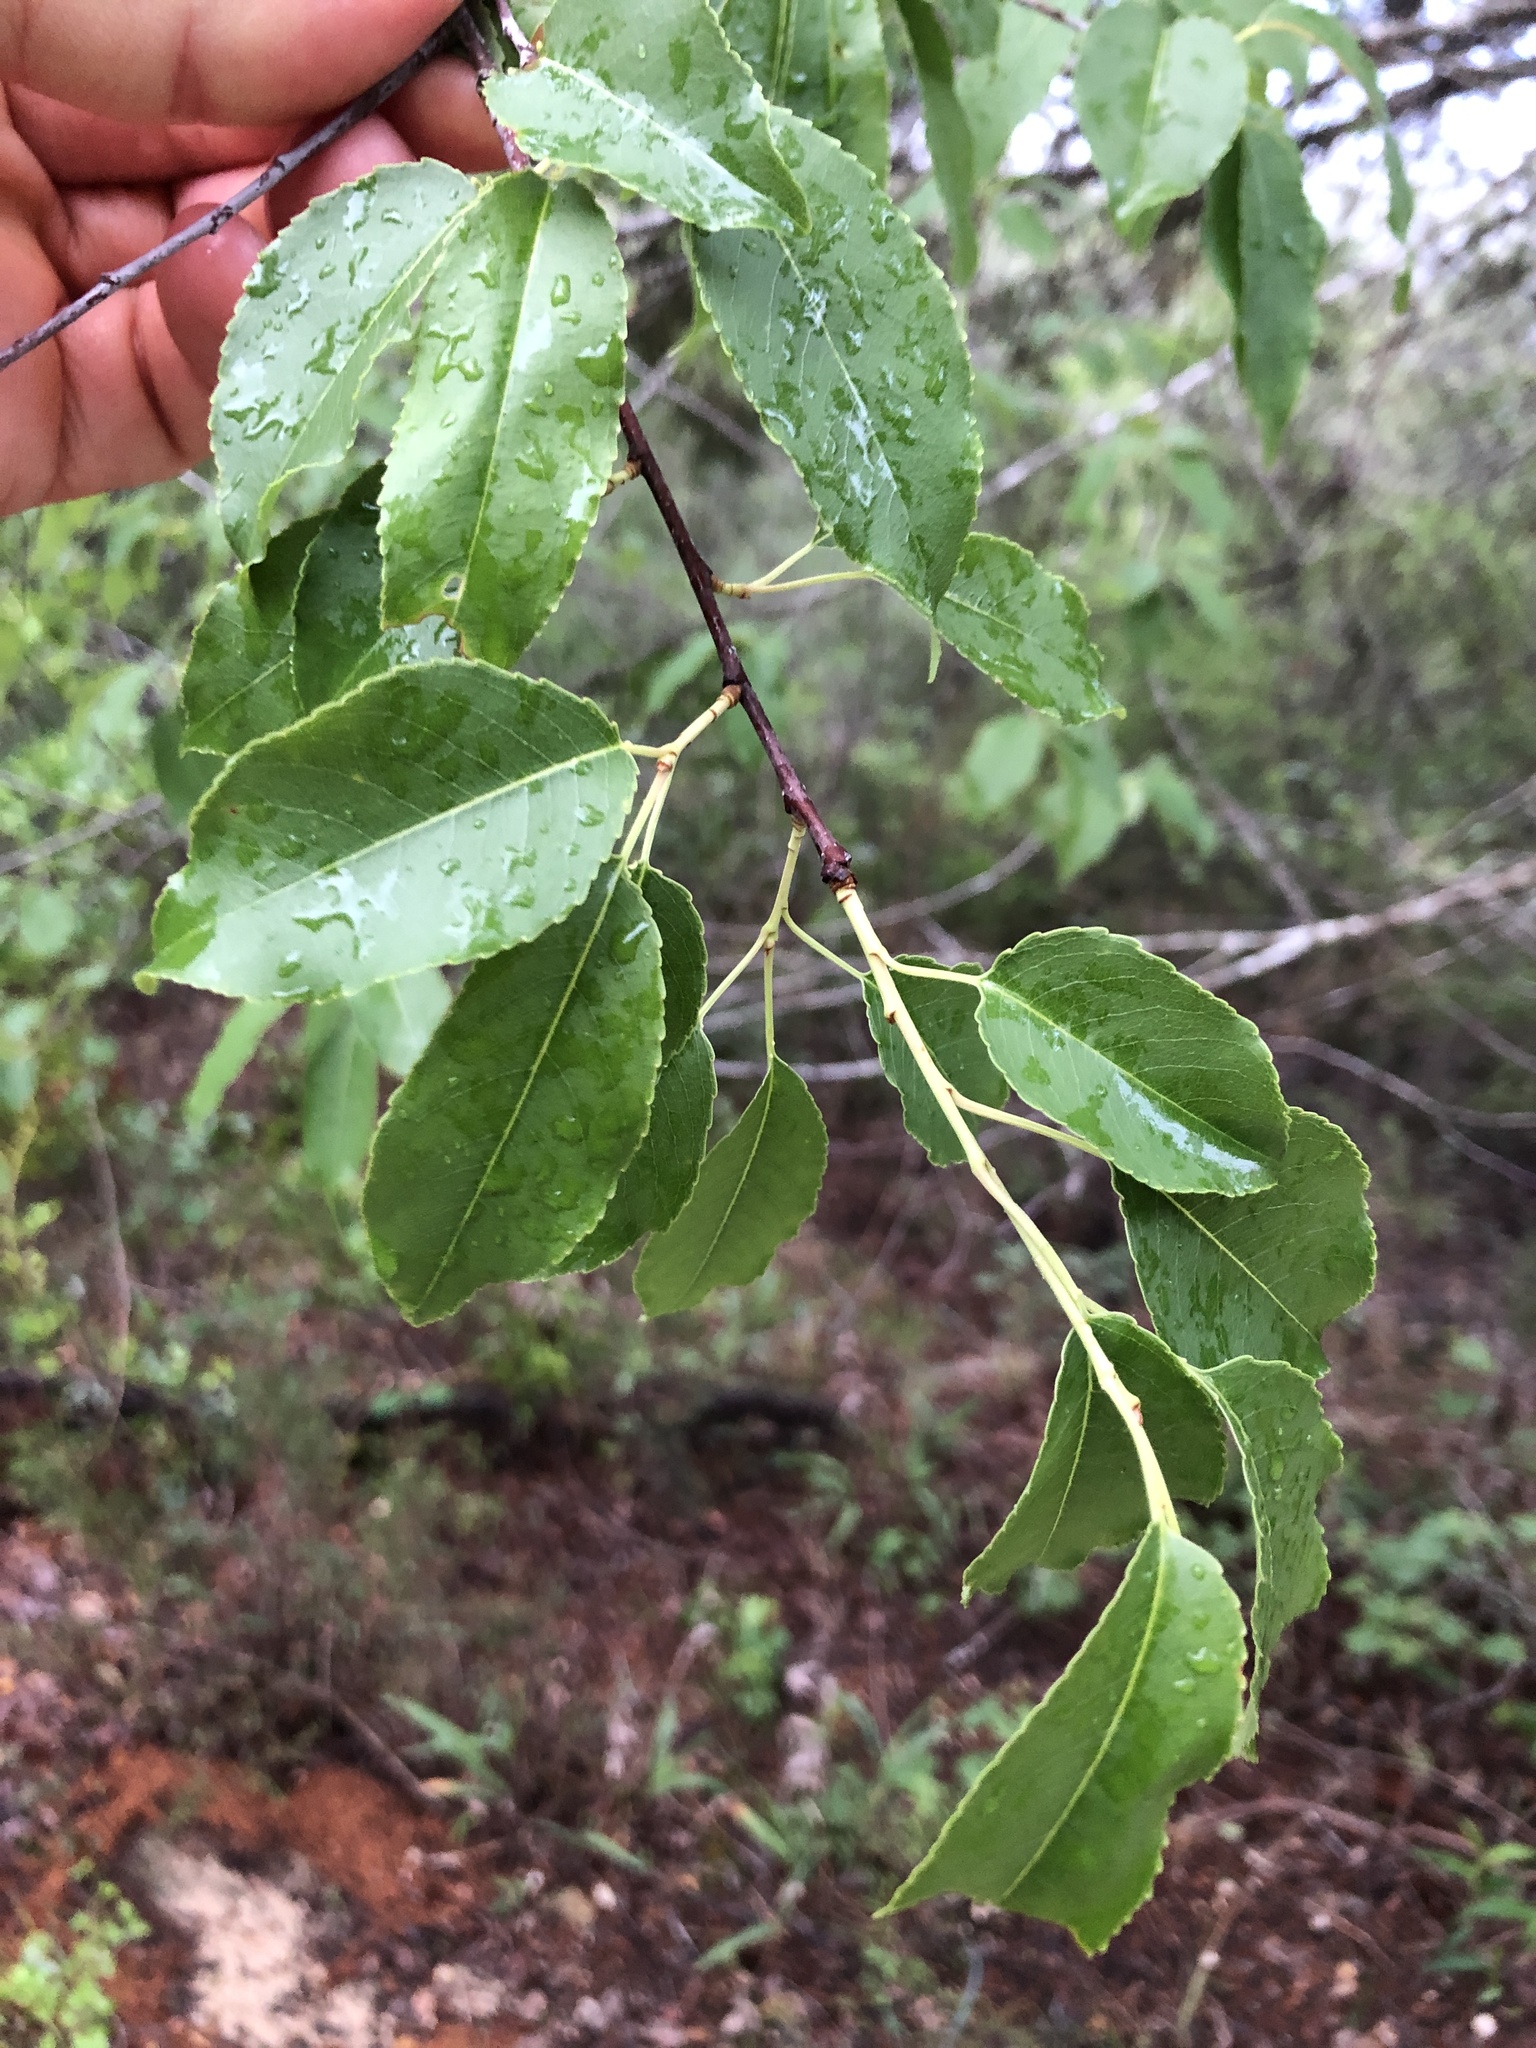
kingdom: Plantae
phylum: Tracheophyta
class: Magnoliopsida
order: Rosales
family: Rosaceae
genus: Prunus
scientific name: Prunus serotina
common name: Black cherry
